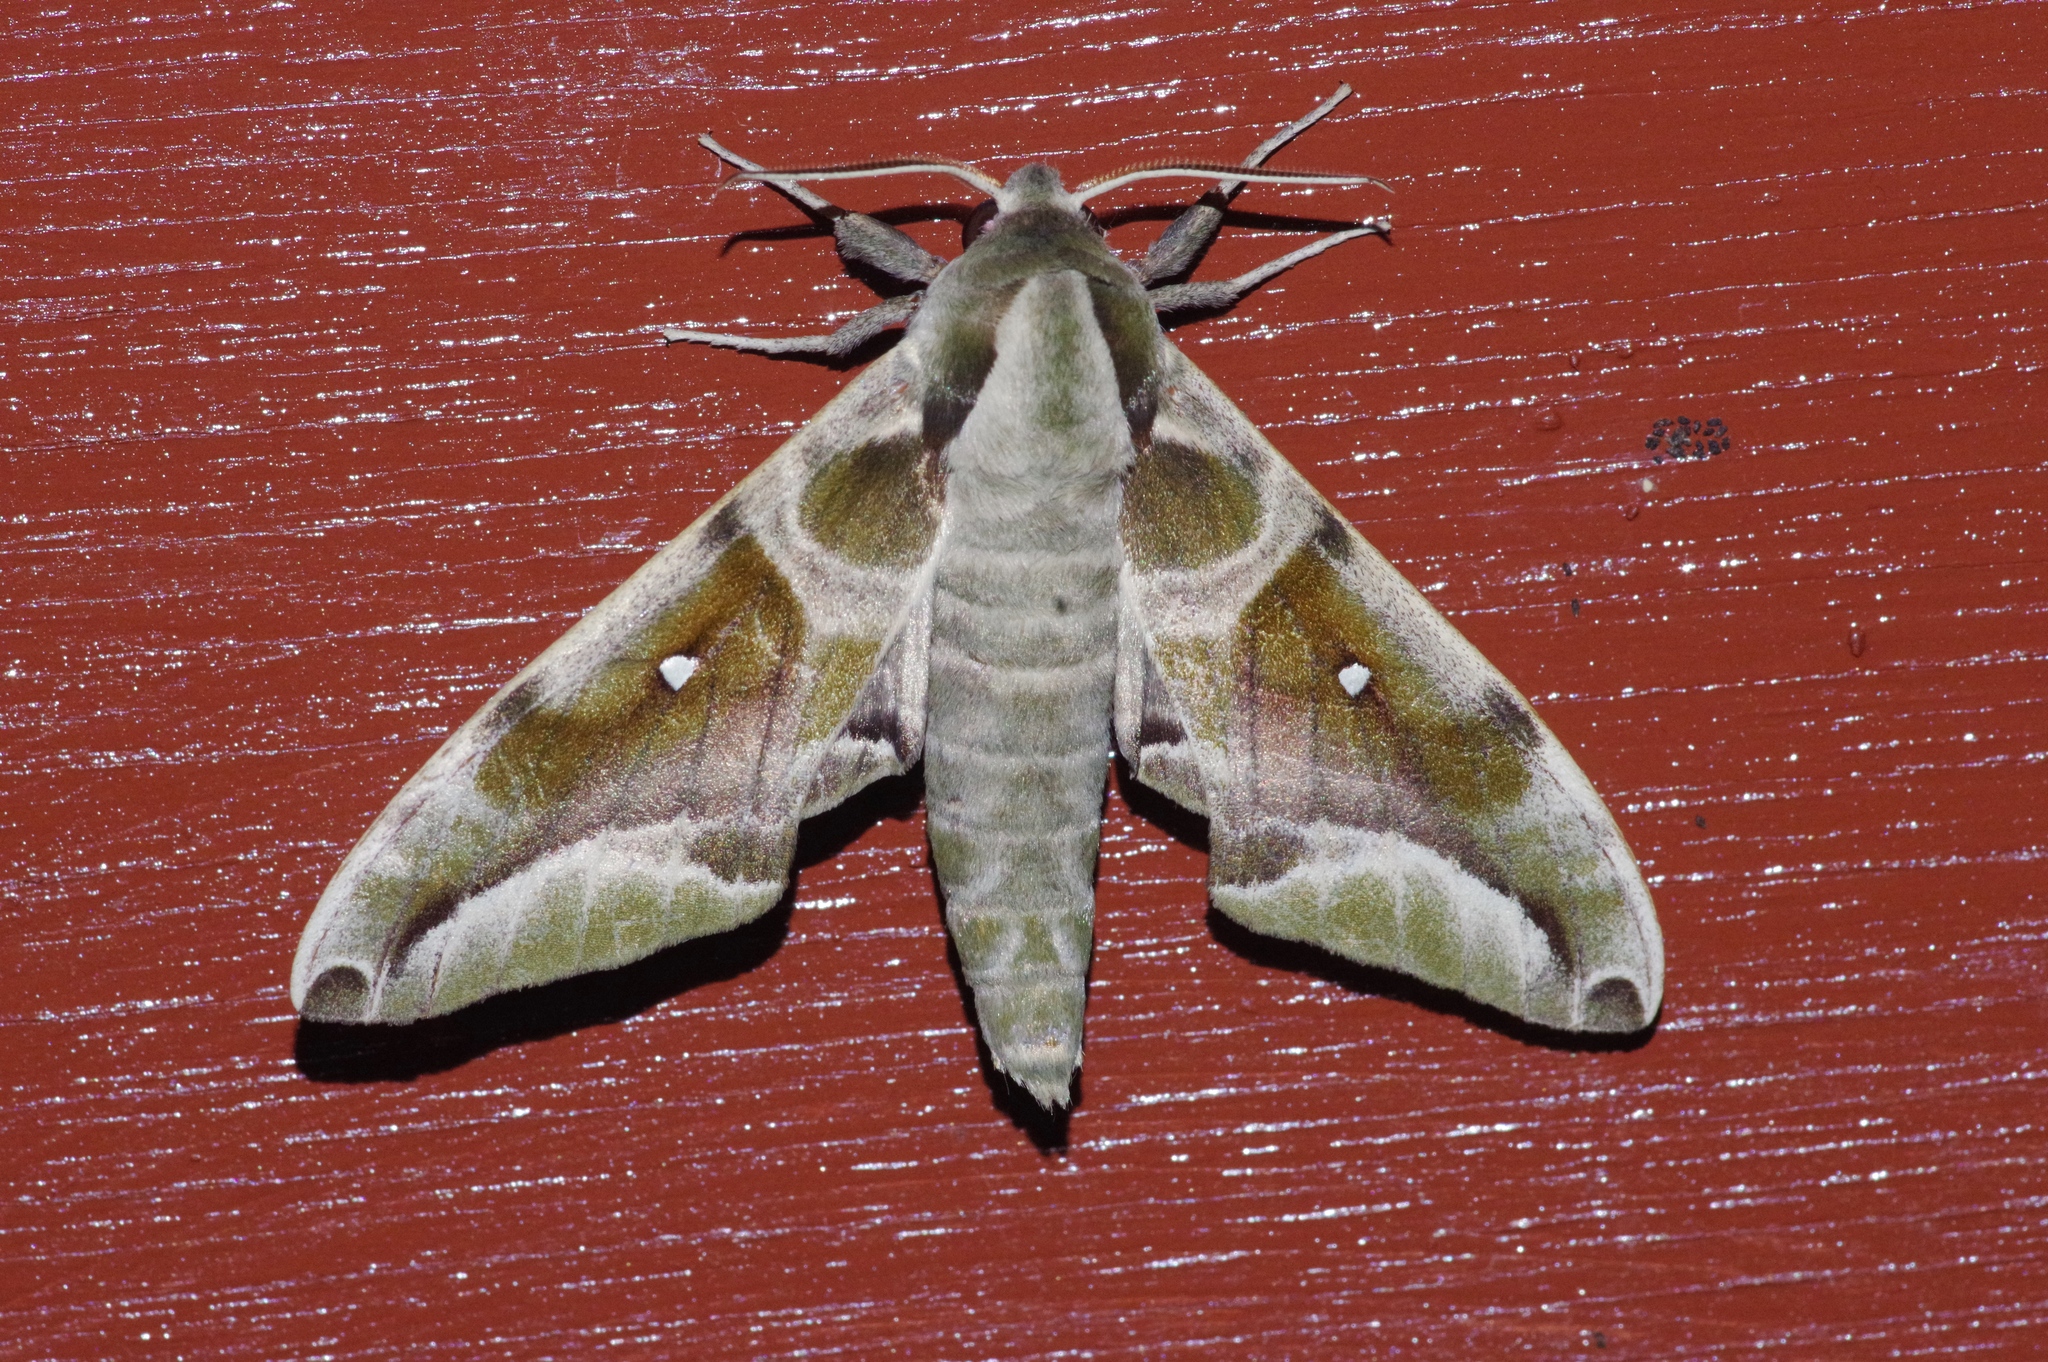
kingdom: Animalia
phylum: Arthropoda
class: Insecta
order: Lepidoptera
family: Sphingidae
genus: Parum
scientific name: Parum colligata
